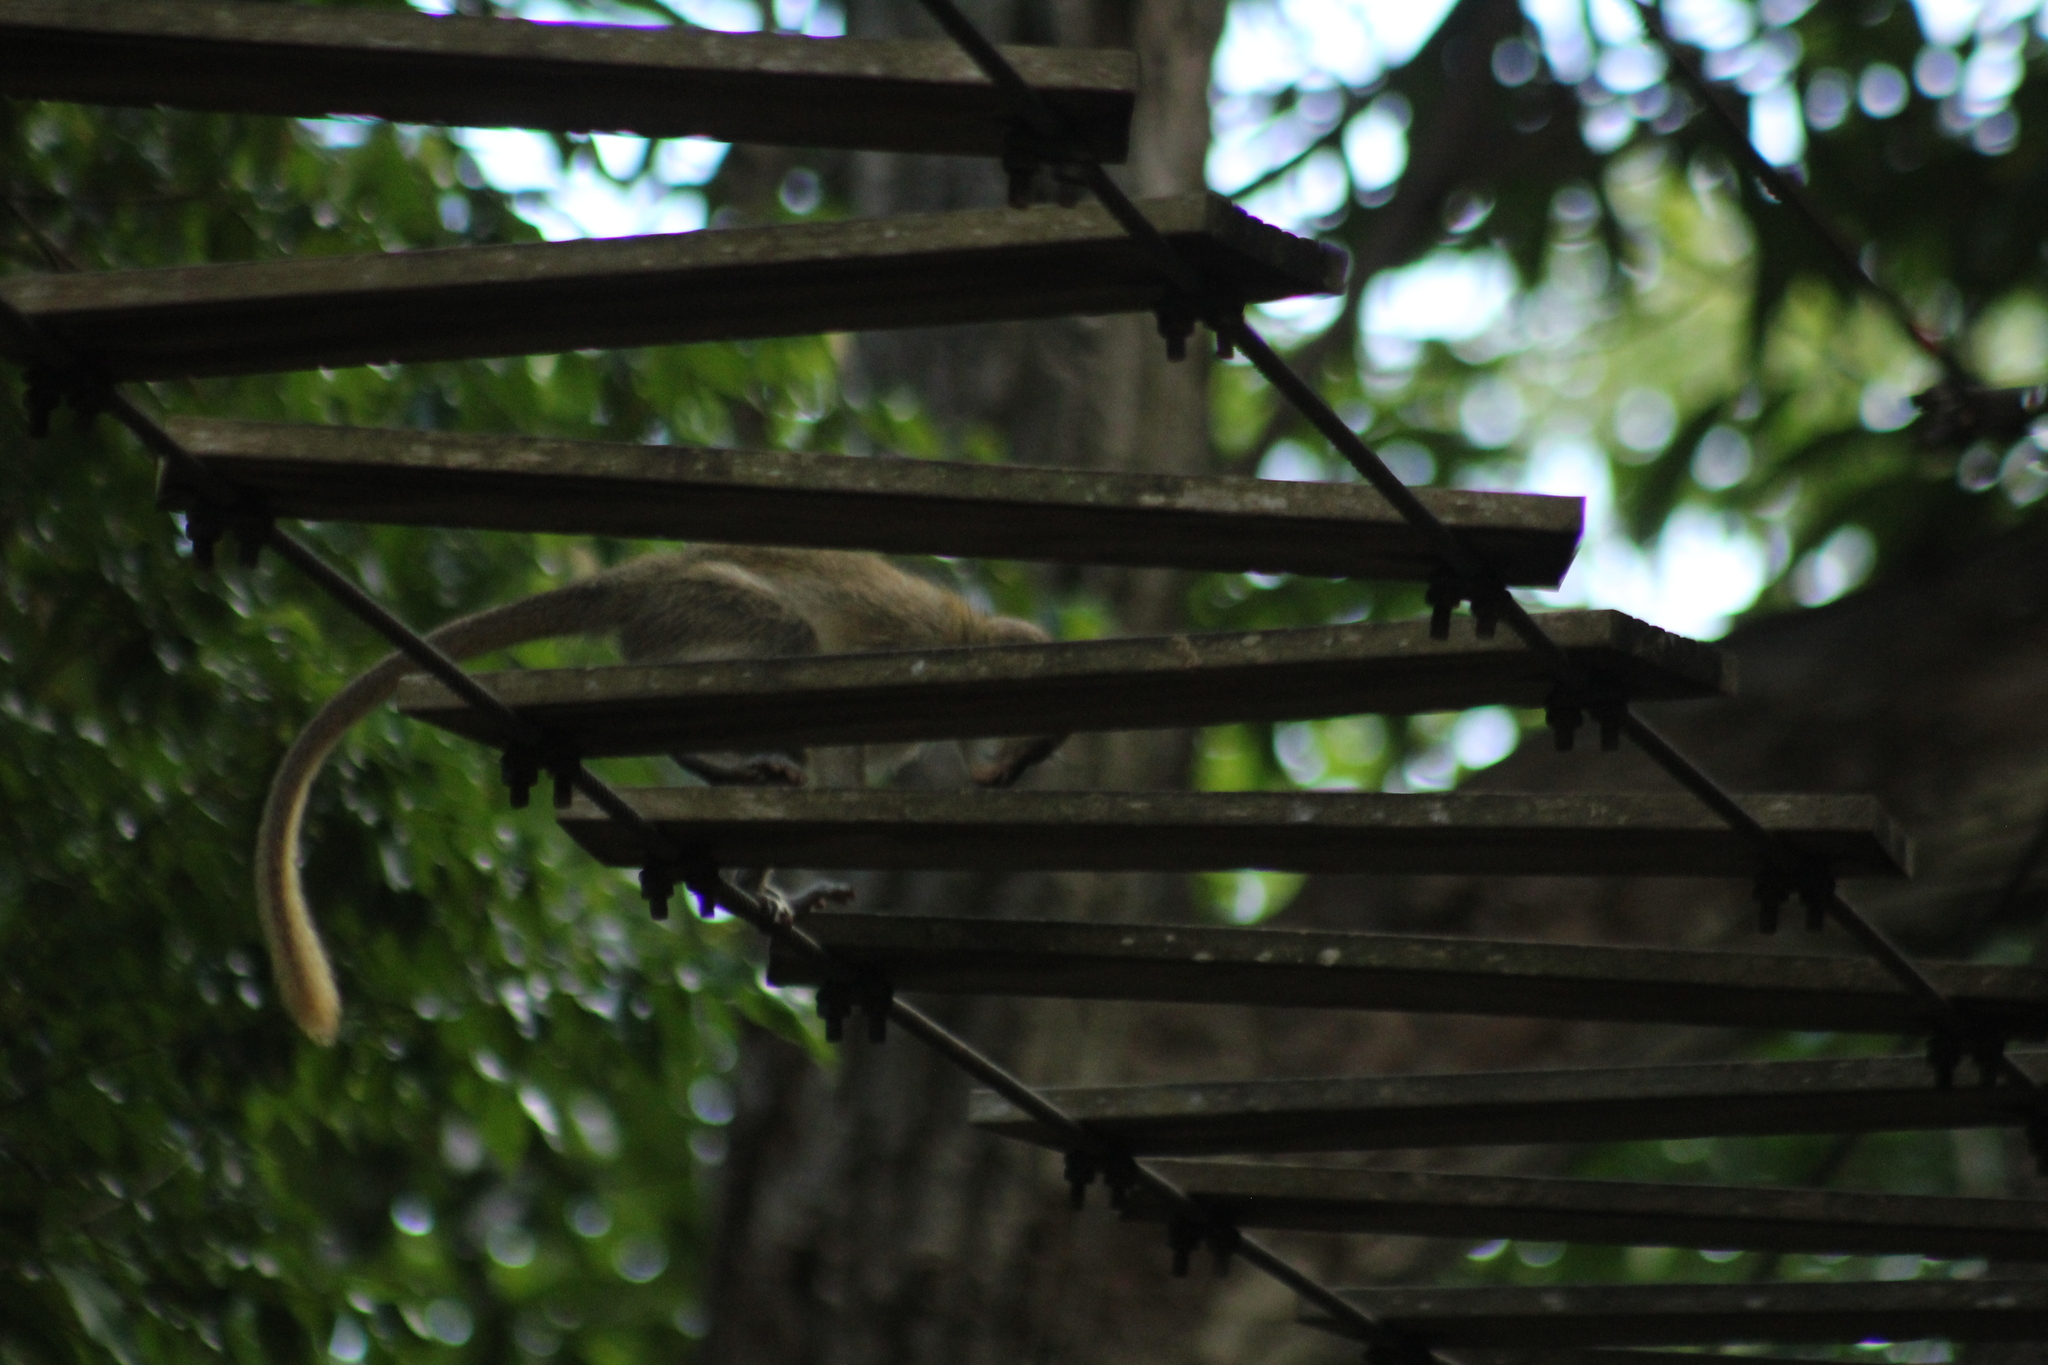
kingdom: Animalia
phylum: Chordata
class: Mammalia
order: Primates
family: Cercopithecidae
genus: Chlorocebus
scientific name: Chlorocebus sabaeus
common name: Green monkey
